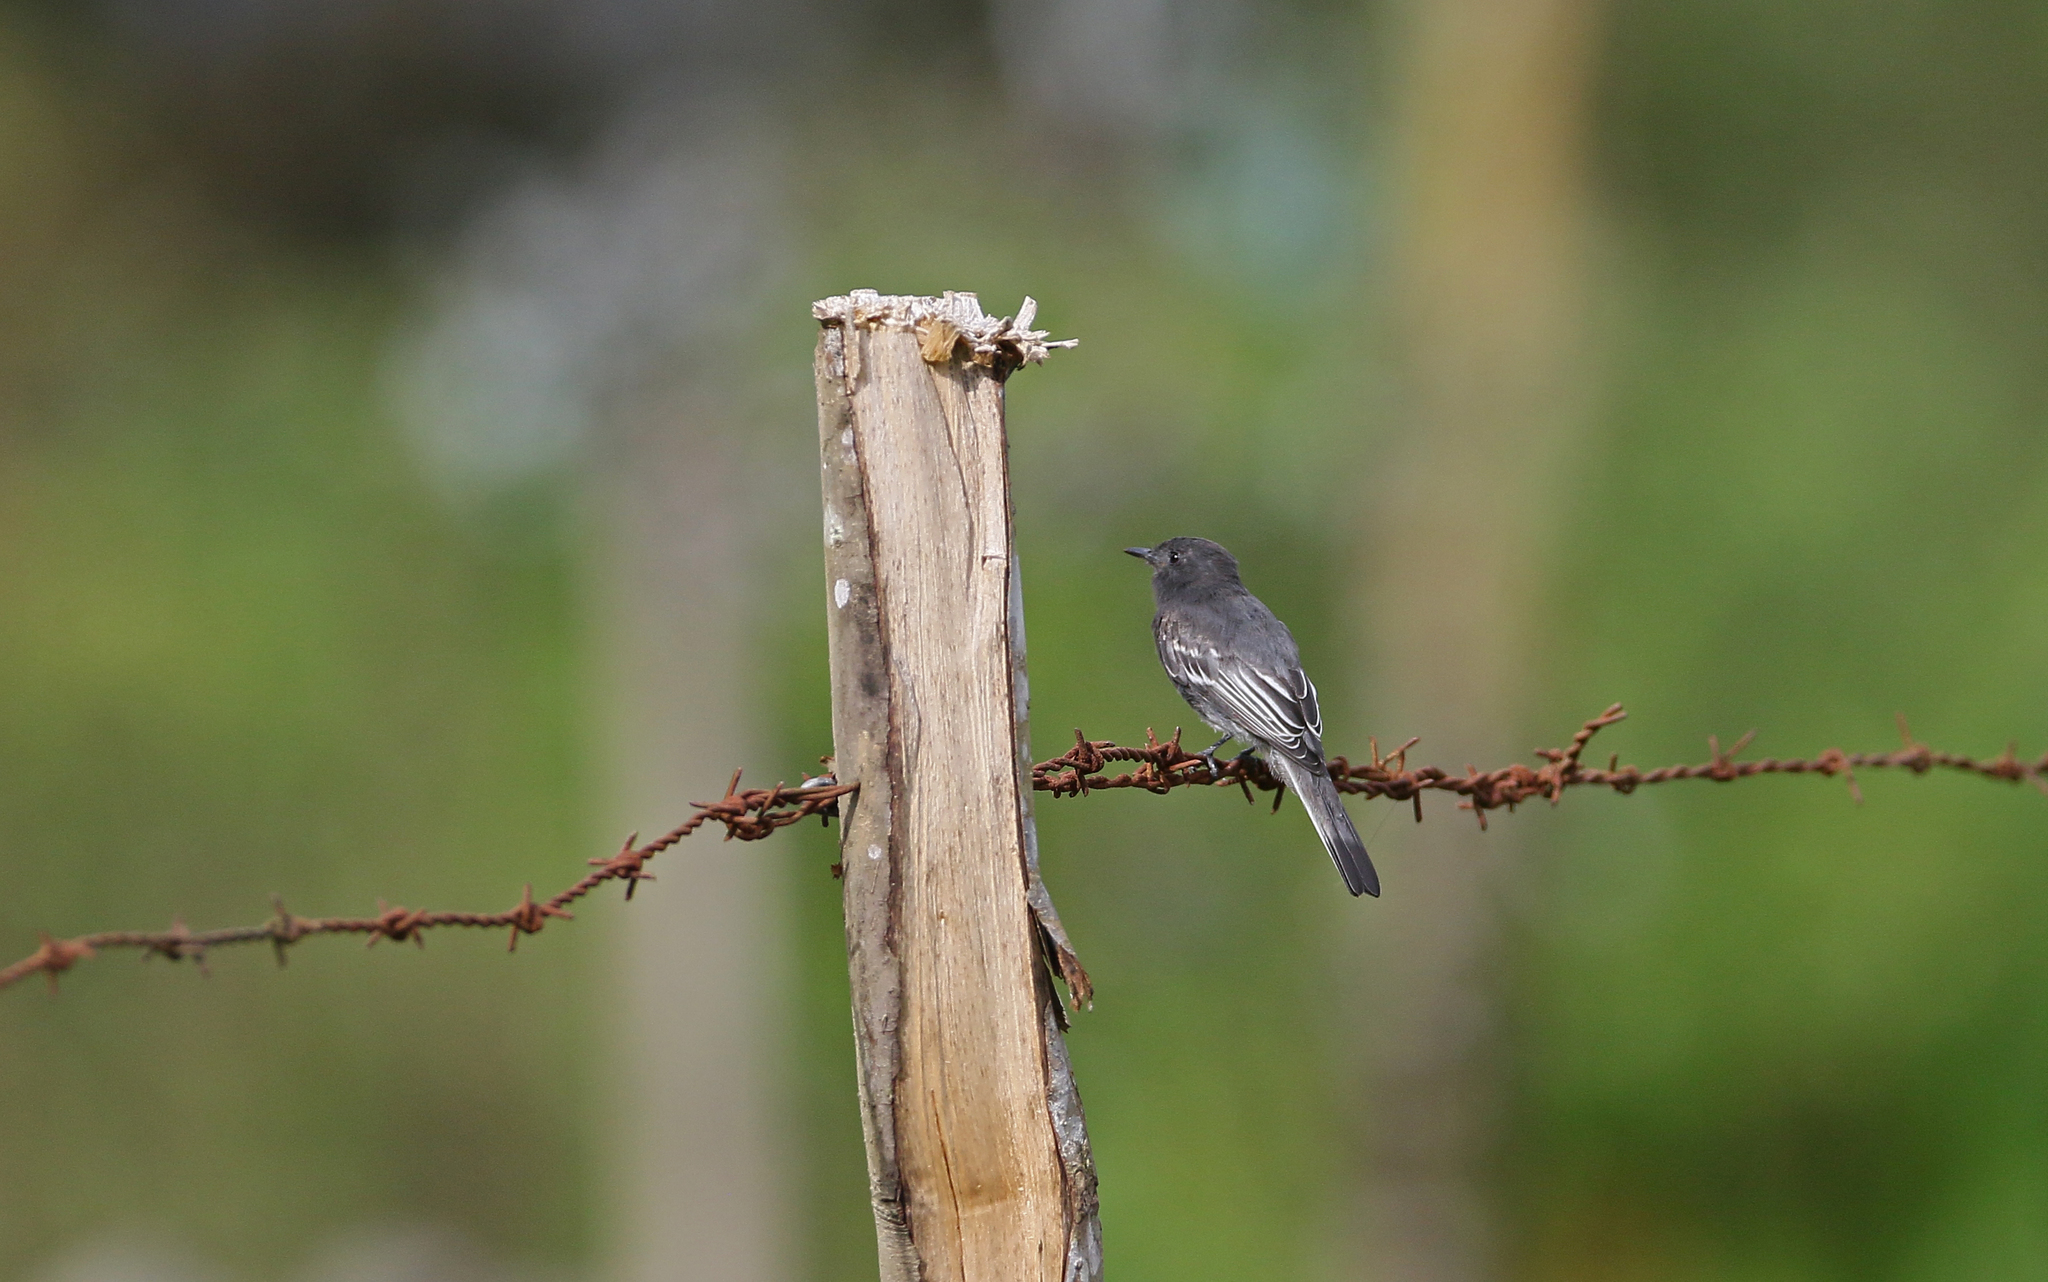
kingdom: Animalia
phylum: Chordata
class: Aves
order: Passeriformes
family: Tyrannidae
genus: Sayornis
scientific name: Sayornis nigricans
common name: Black phoebe
